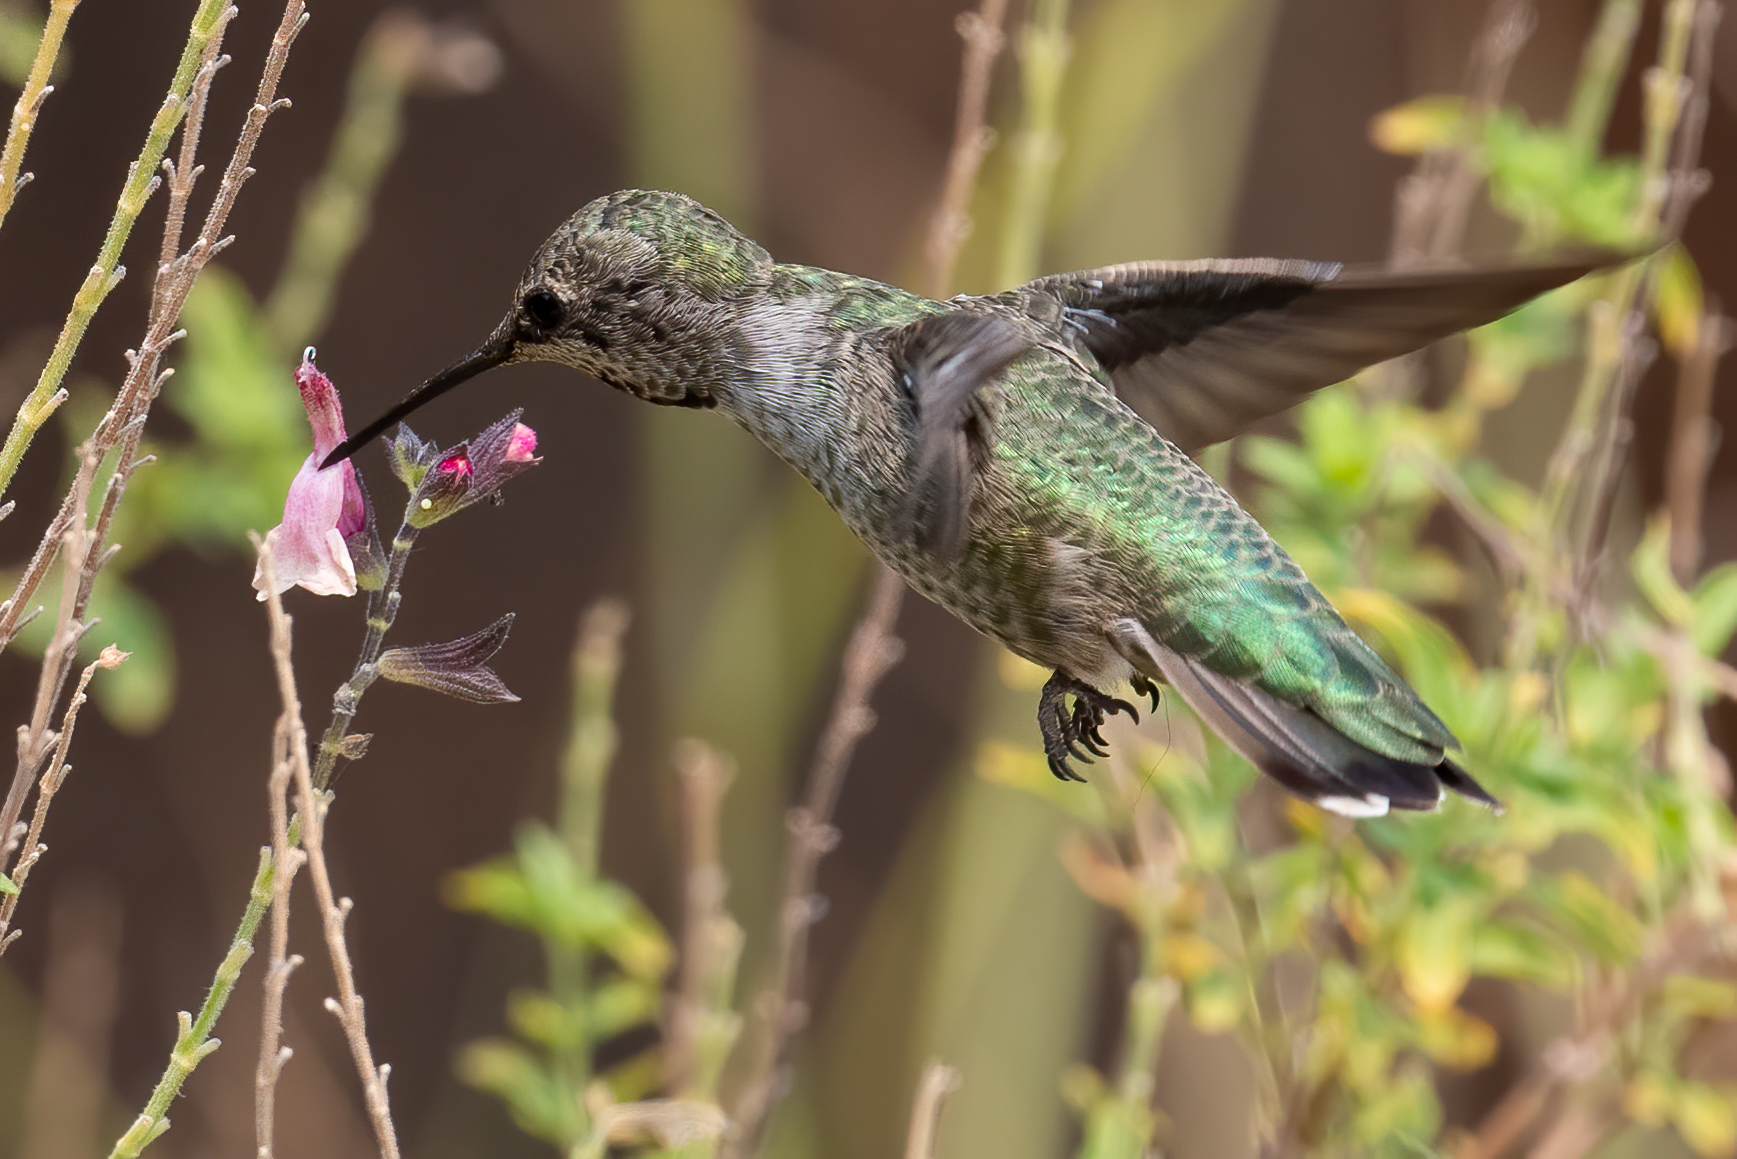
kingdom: Animalia
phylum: Chordata
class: Aves
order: Apodiformes
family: Trochilidae
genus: Calypte
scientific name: Calypte anna
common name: Anna's hummingbird
